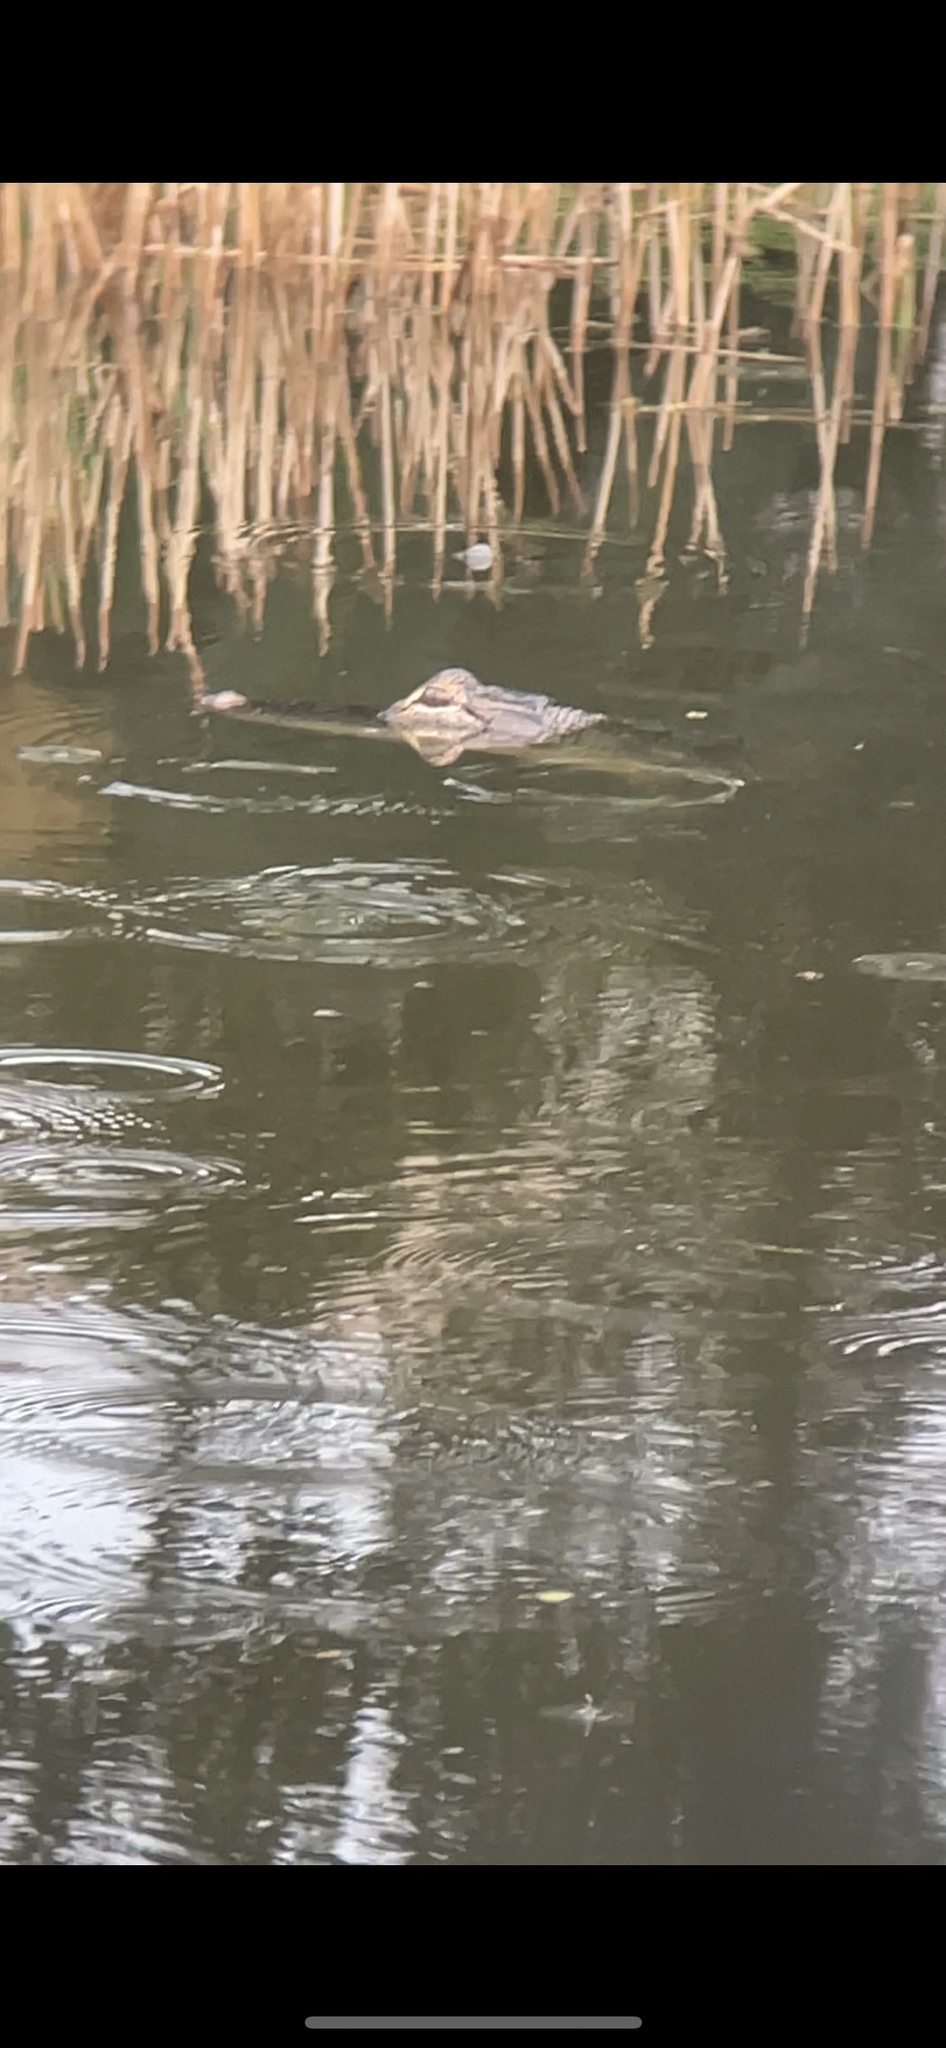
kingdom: Animalia
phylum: Chordata
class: Crocodylia
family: Alligatoridae
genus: Alligator
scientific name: Alligator mississippiensis
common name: American alligator
